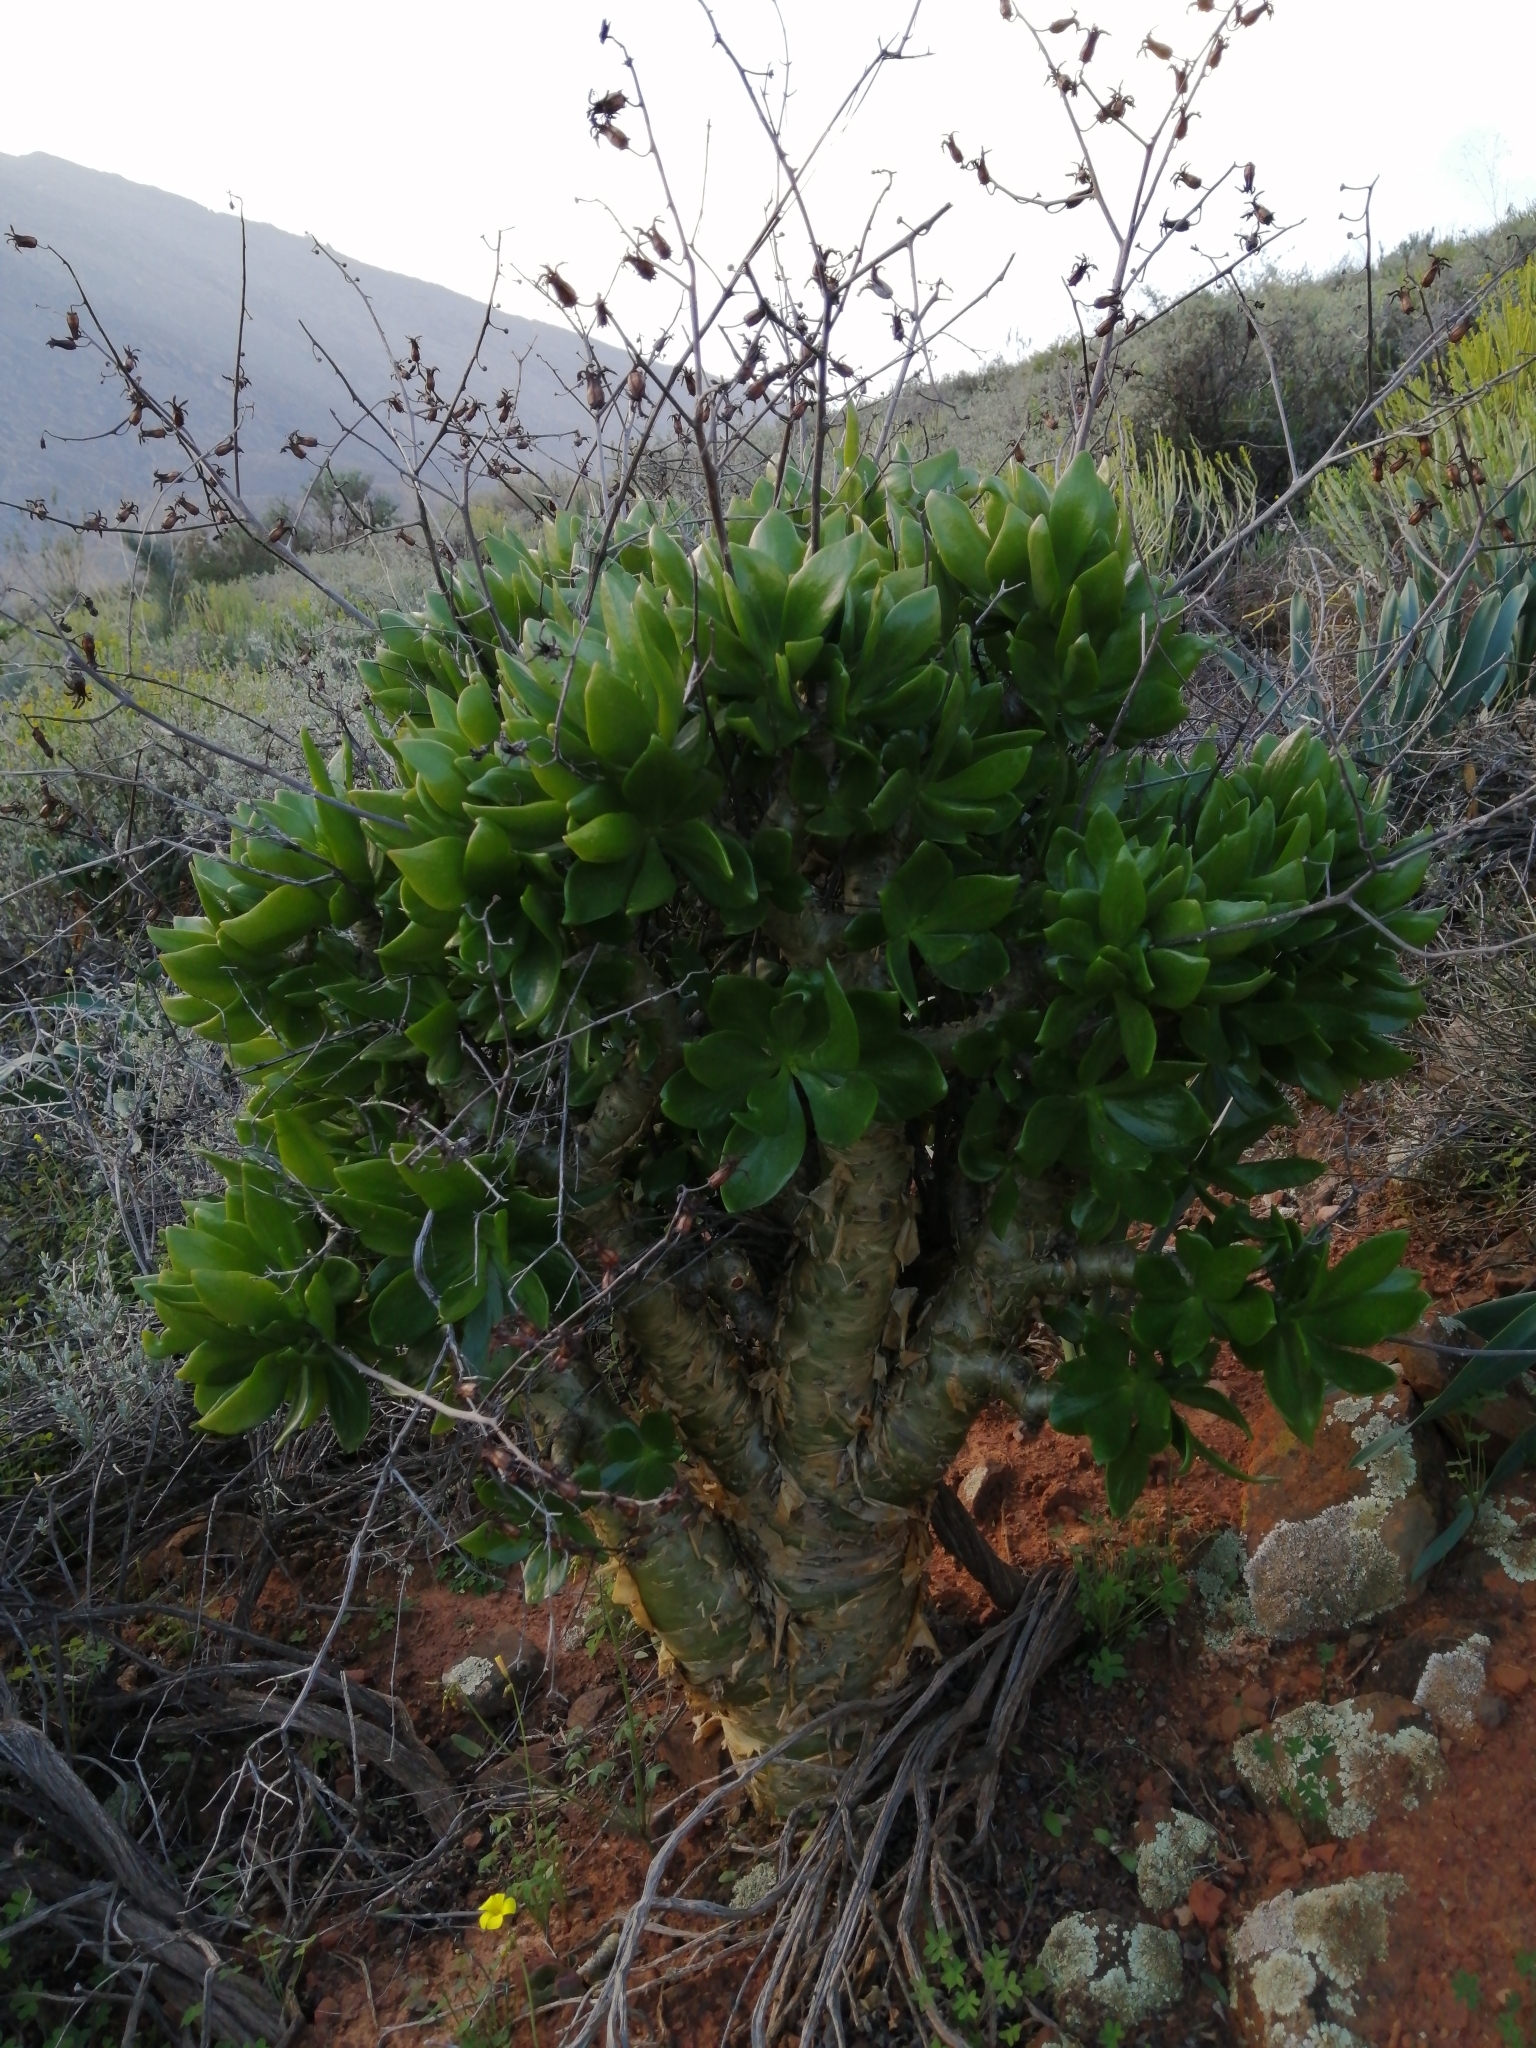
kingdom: Plantae
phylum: Tracheophyta
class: Magnoliopsida
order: Saxifragales
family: Crassulaceae
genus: Tylecodon
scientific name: Tylecodon paniculatus
